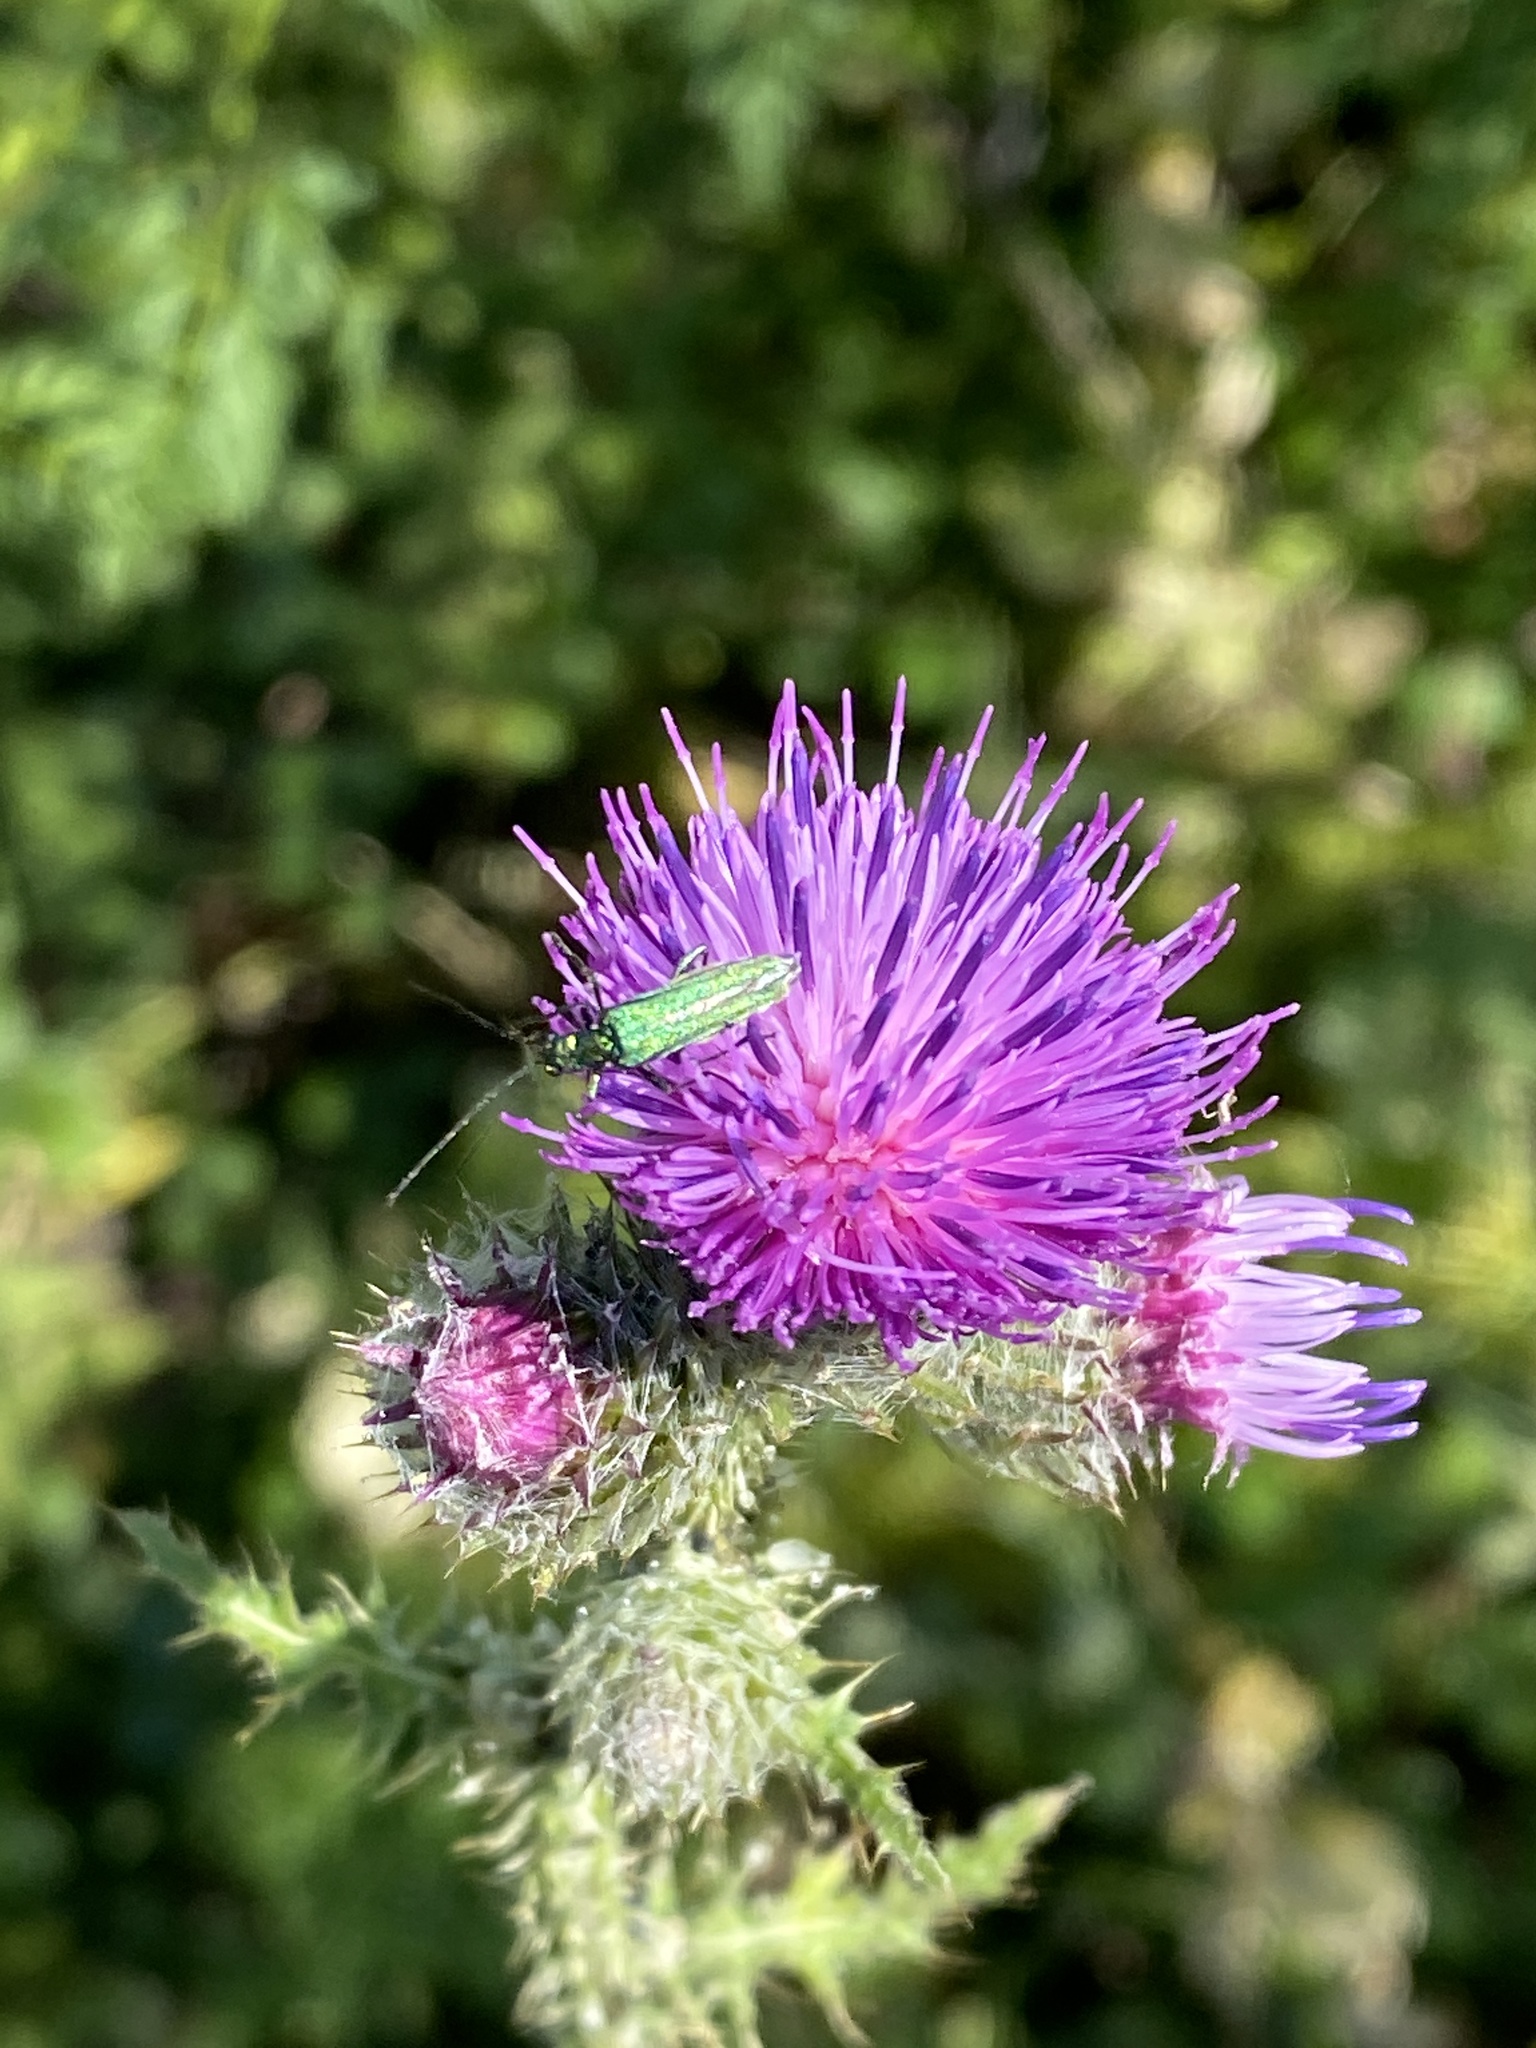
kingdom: Animalia
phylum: Arthropoda
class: Insecta
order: Coleoptera
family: Oedemeridae
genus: Oedemera
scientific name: Oedemera nobilis
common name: Swollen-thighed beetle
